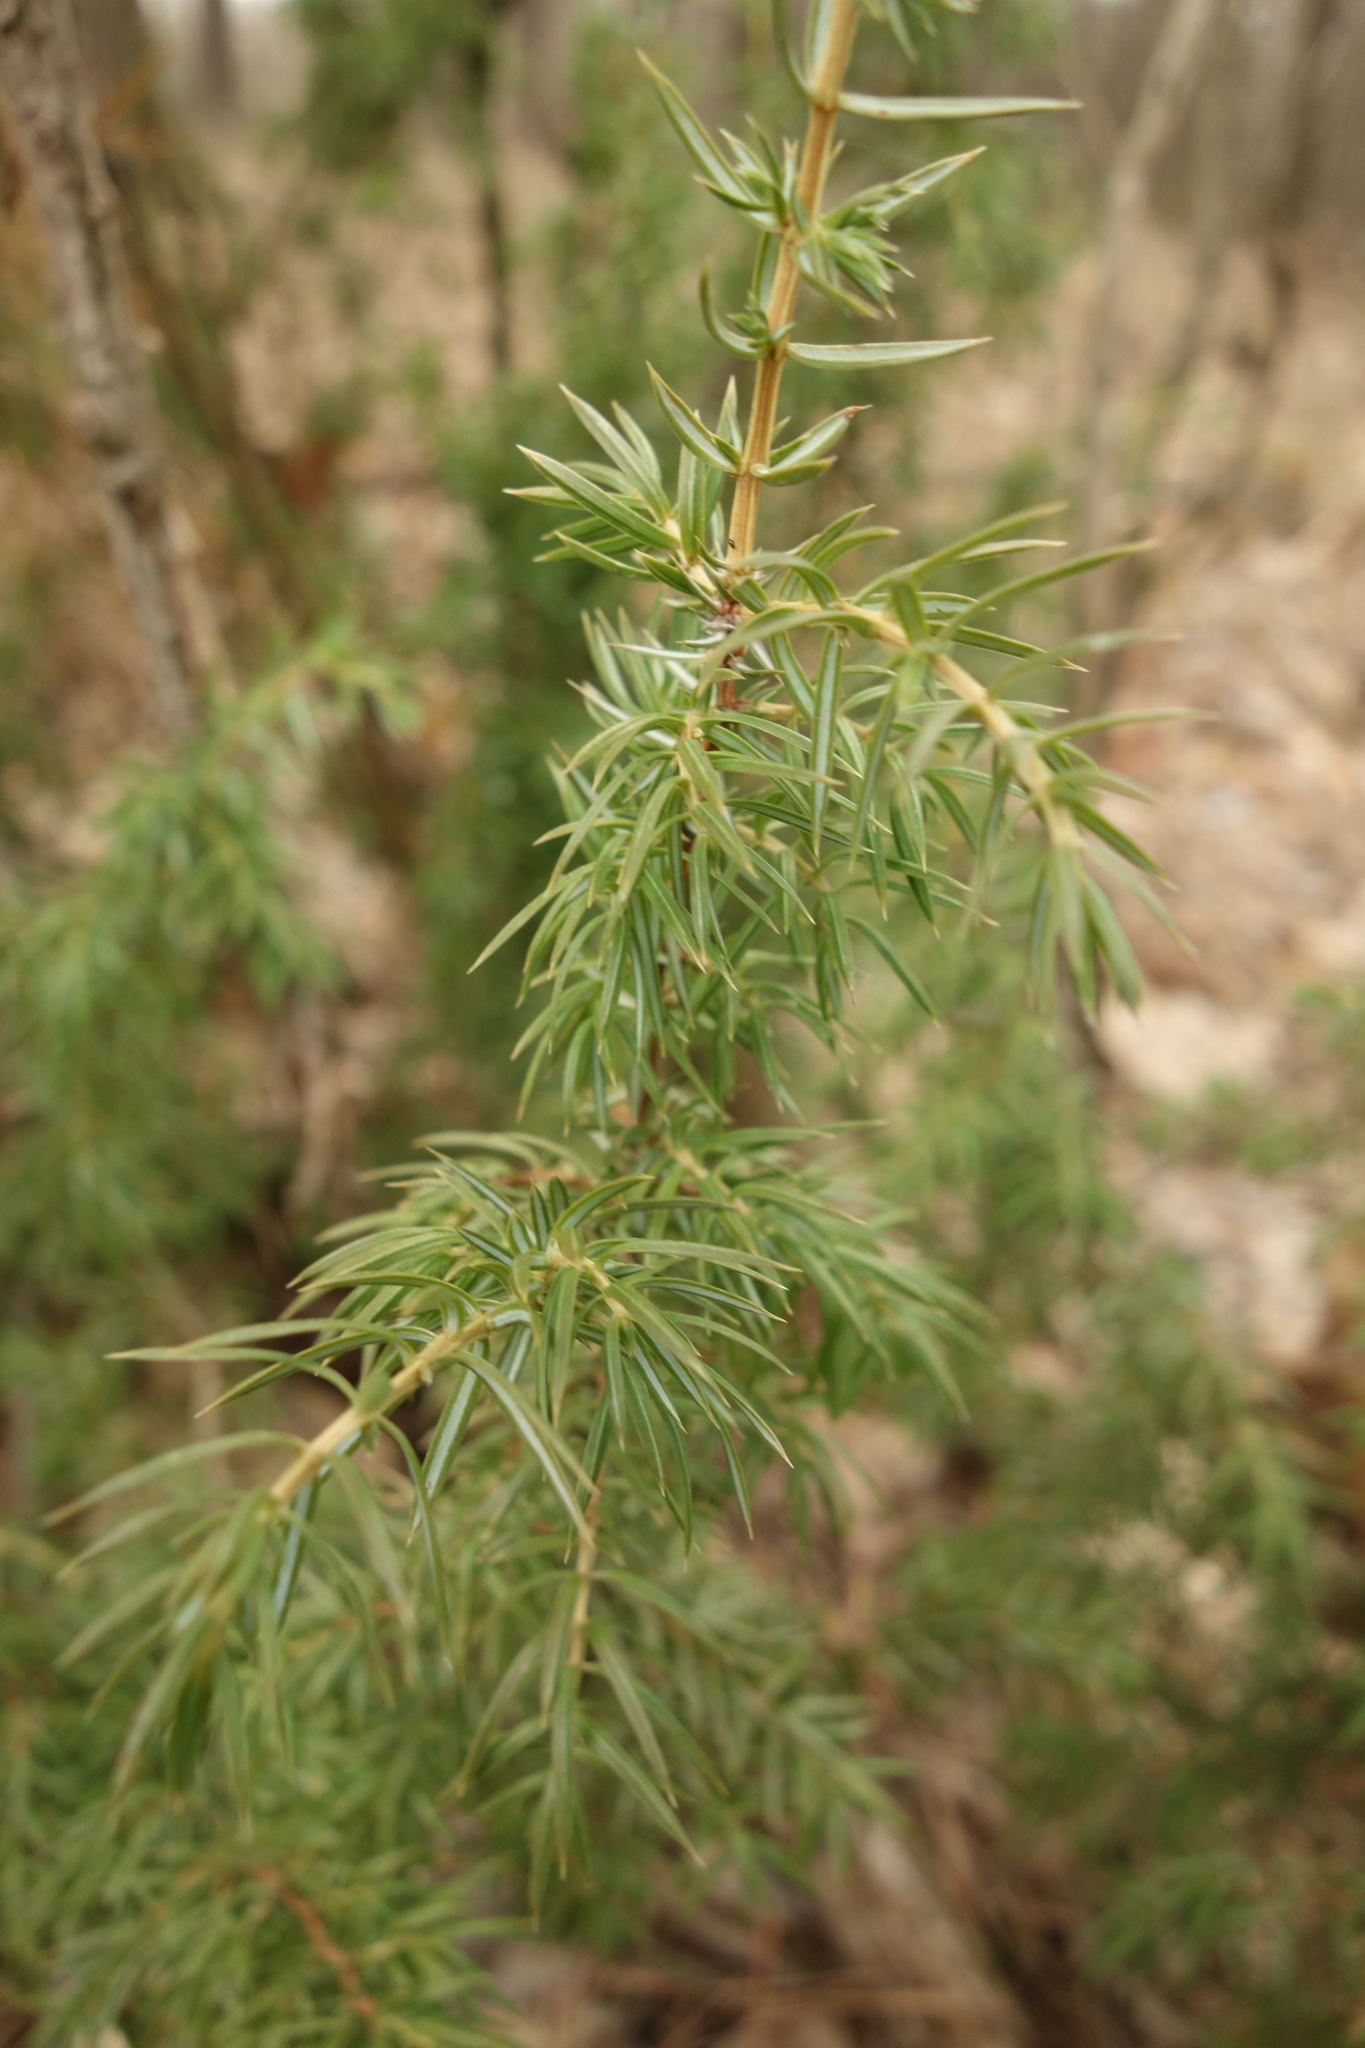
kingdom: Plantae
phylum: Tracheophyta
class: Pinopsida
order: Pinales
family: Cupressaceae
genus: Juniperus
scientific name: Juniperus communis
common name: Common juniper
